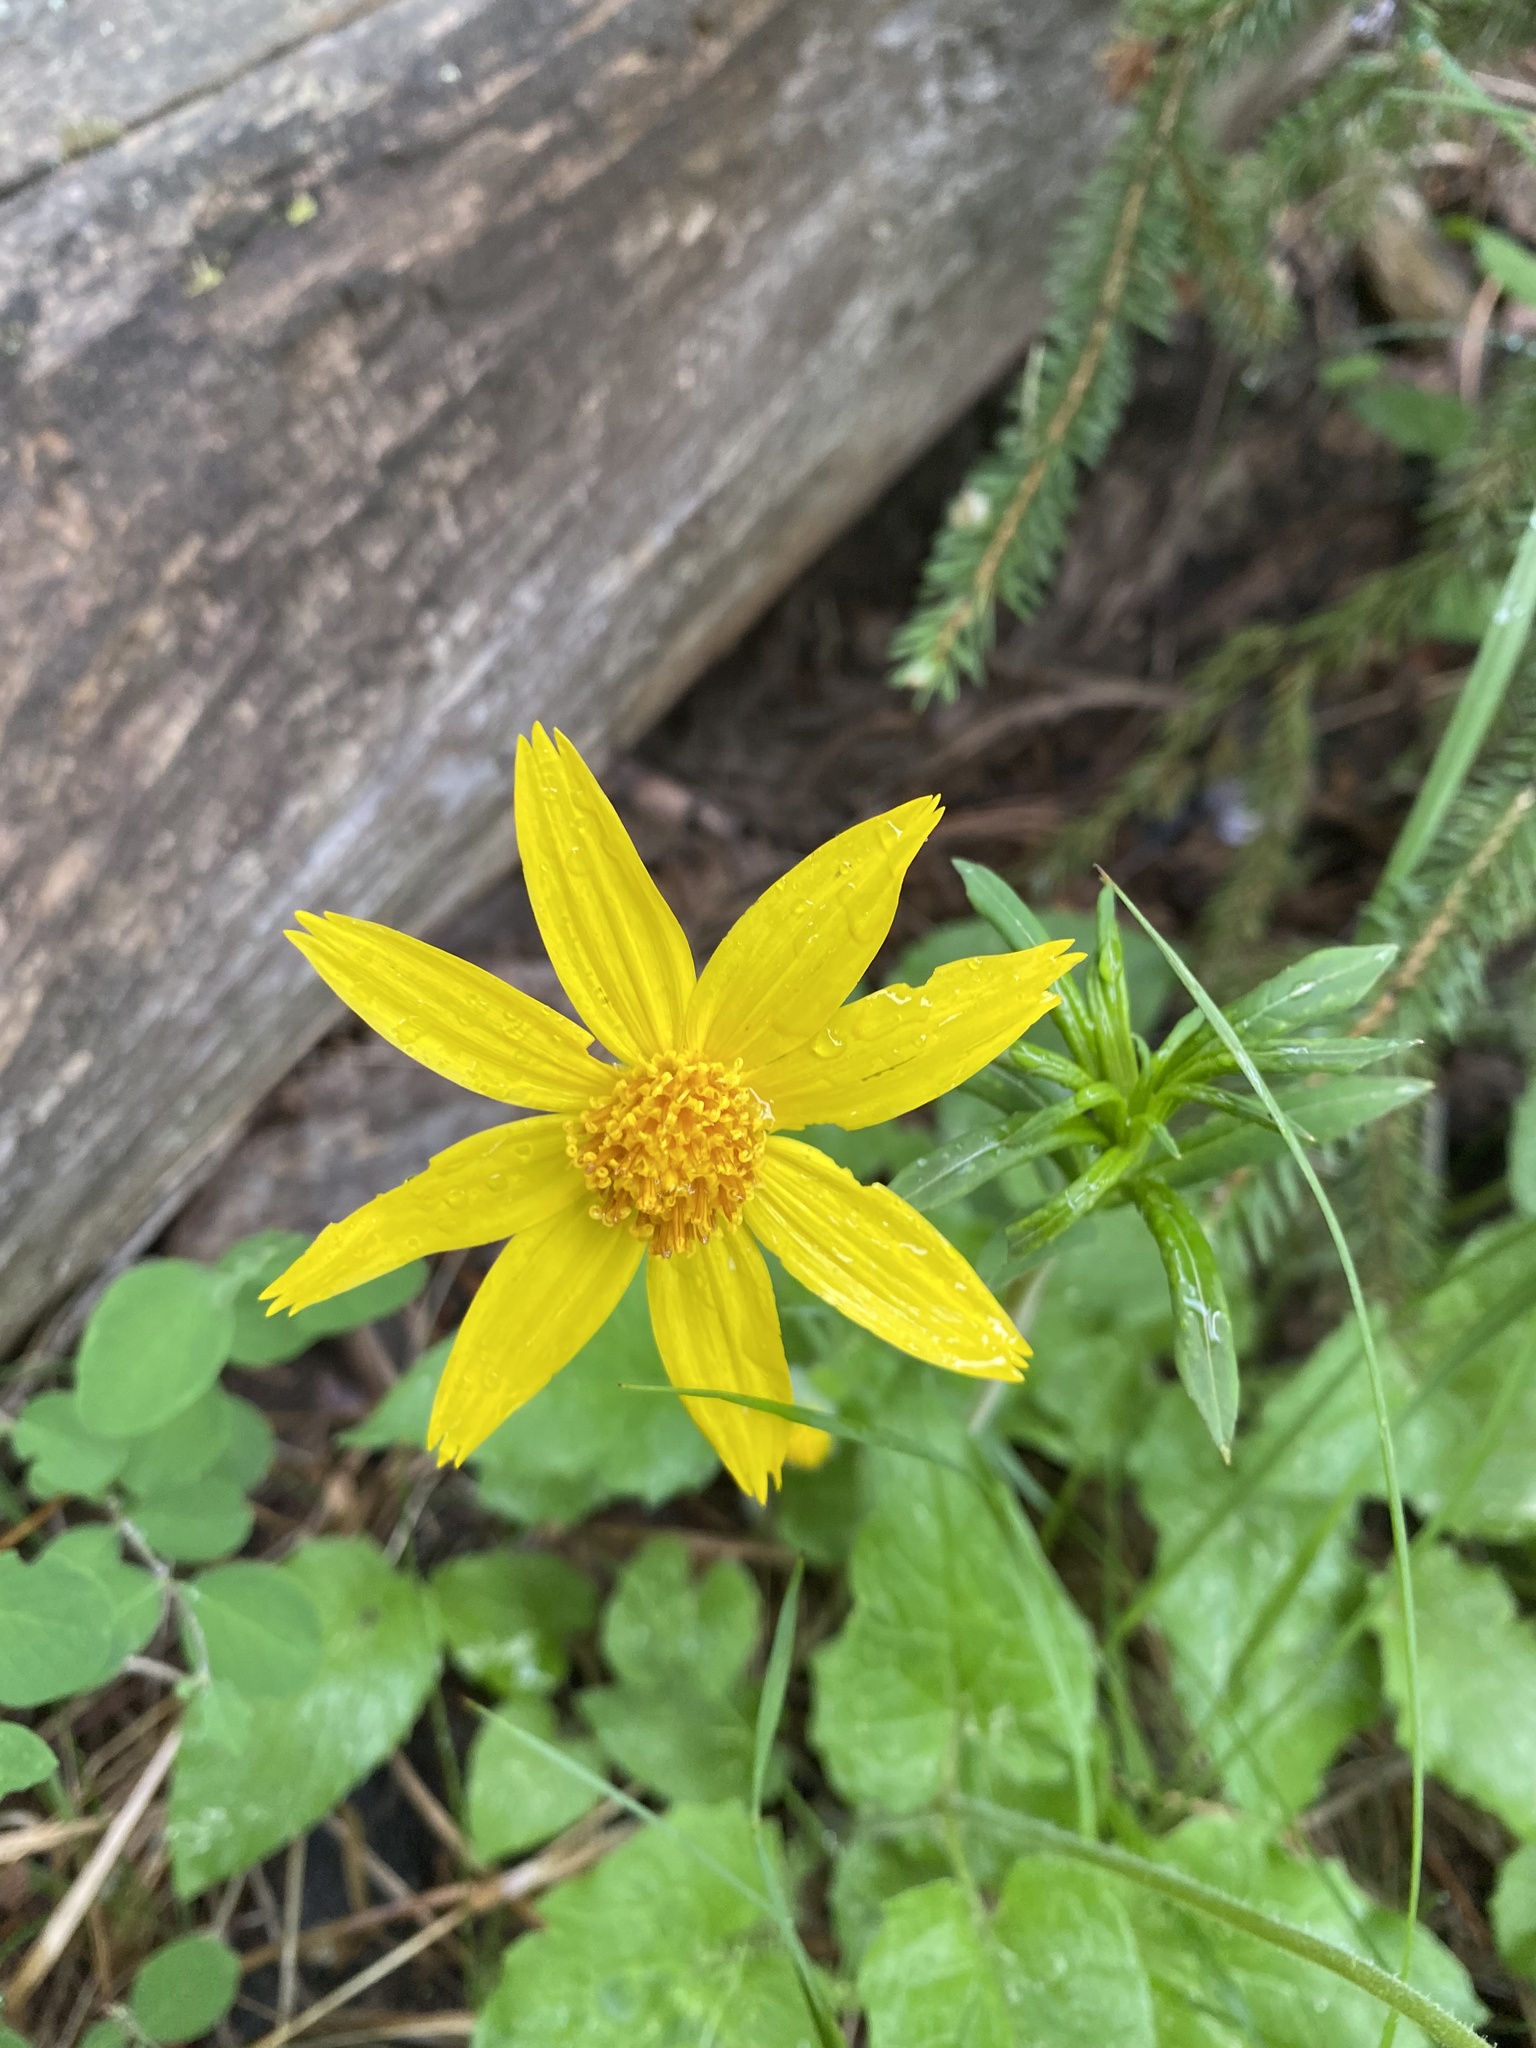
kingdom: Plantae
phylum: Tracheophyta
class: Magnoliopsida
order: Asterales
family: Asteraceae
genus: Arnica
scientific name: Arnica cordifolia
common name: Heart-leaf arnica
